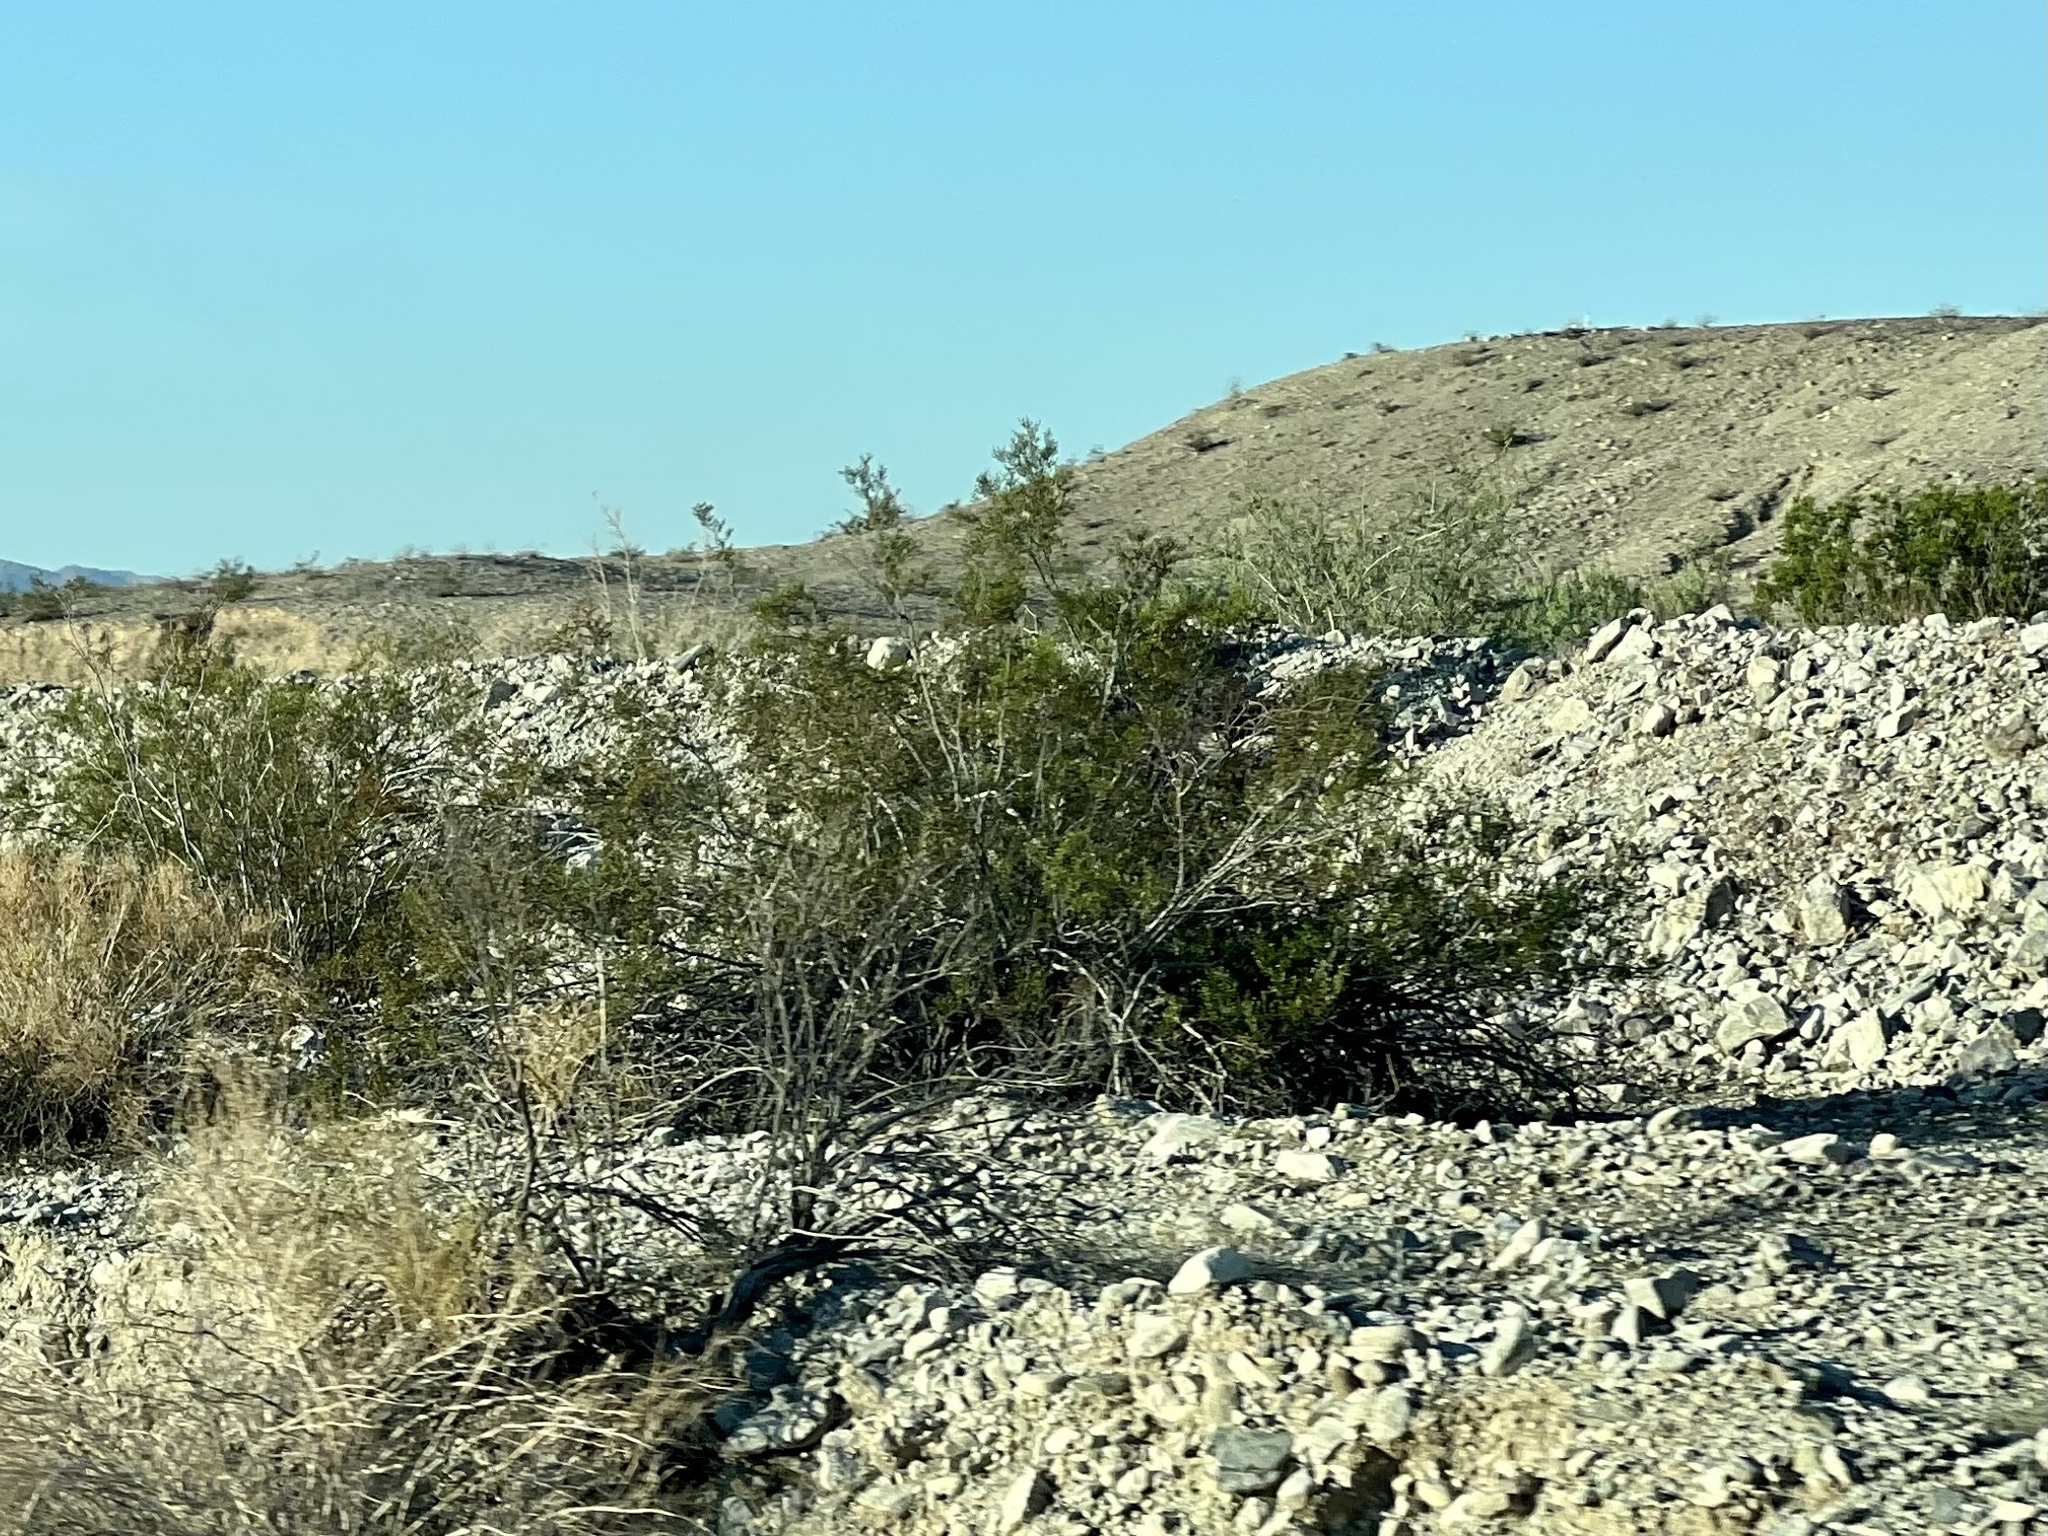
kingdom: Plantae
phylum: Tracheophyta
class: Magnoliopsida
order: Zygophyllales
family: Zygophyllaceae
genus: Larrea
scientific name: Larrea tridentata
